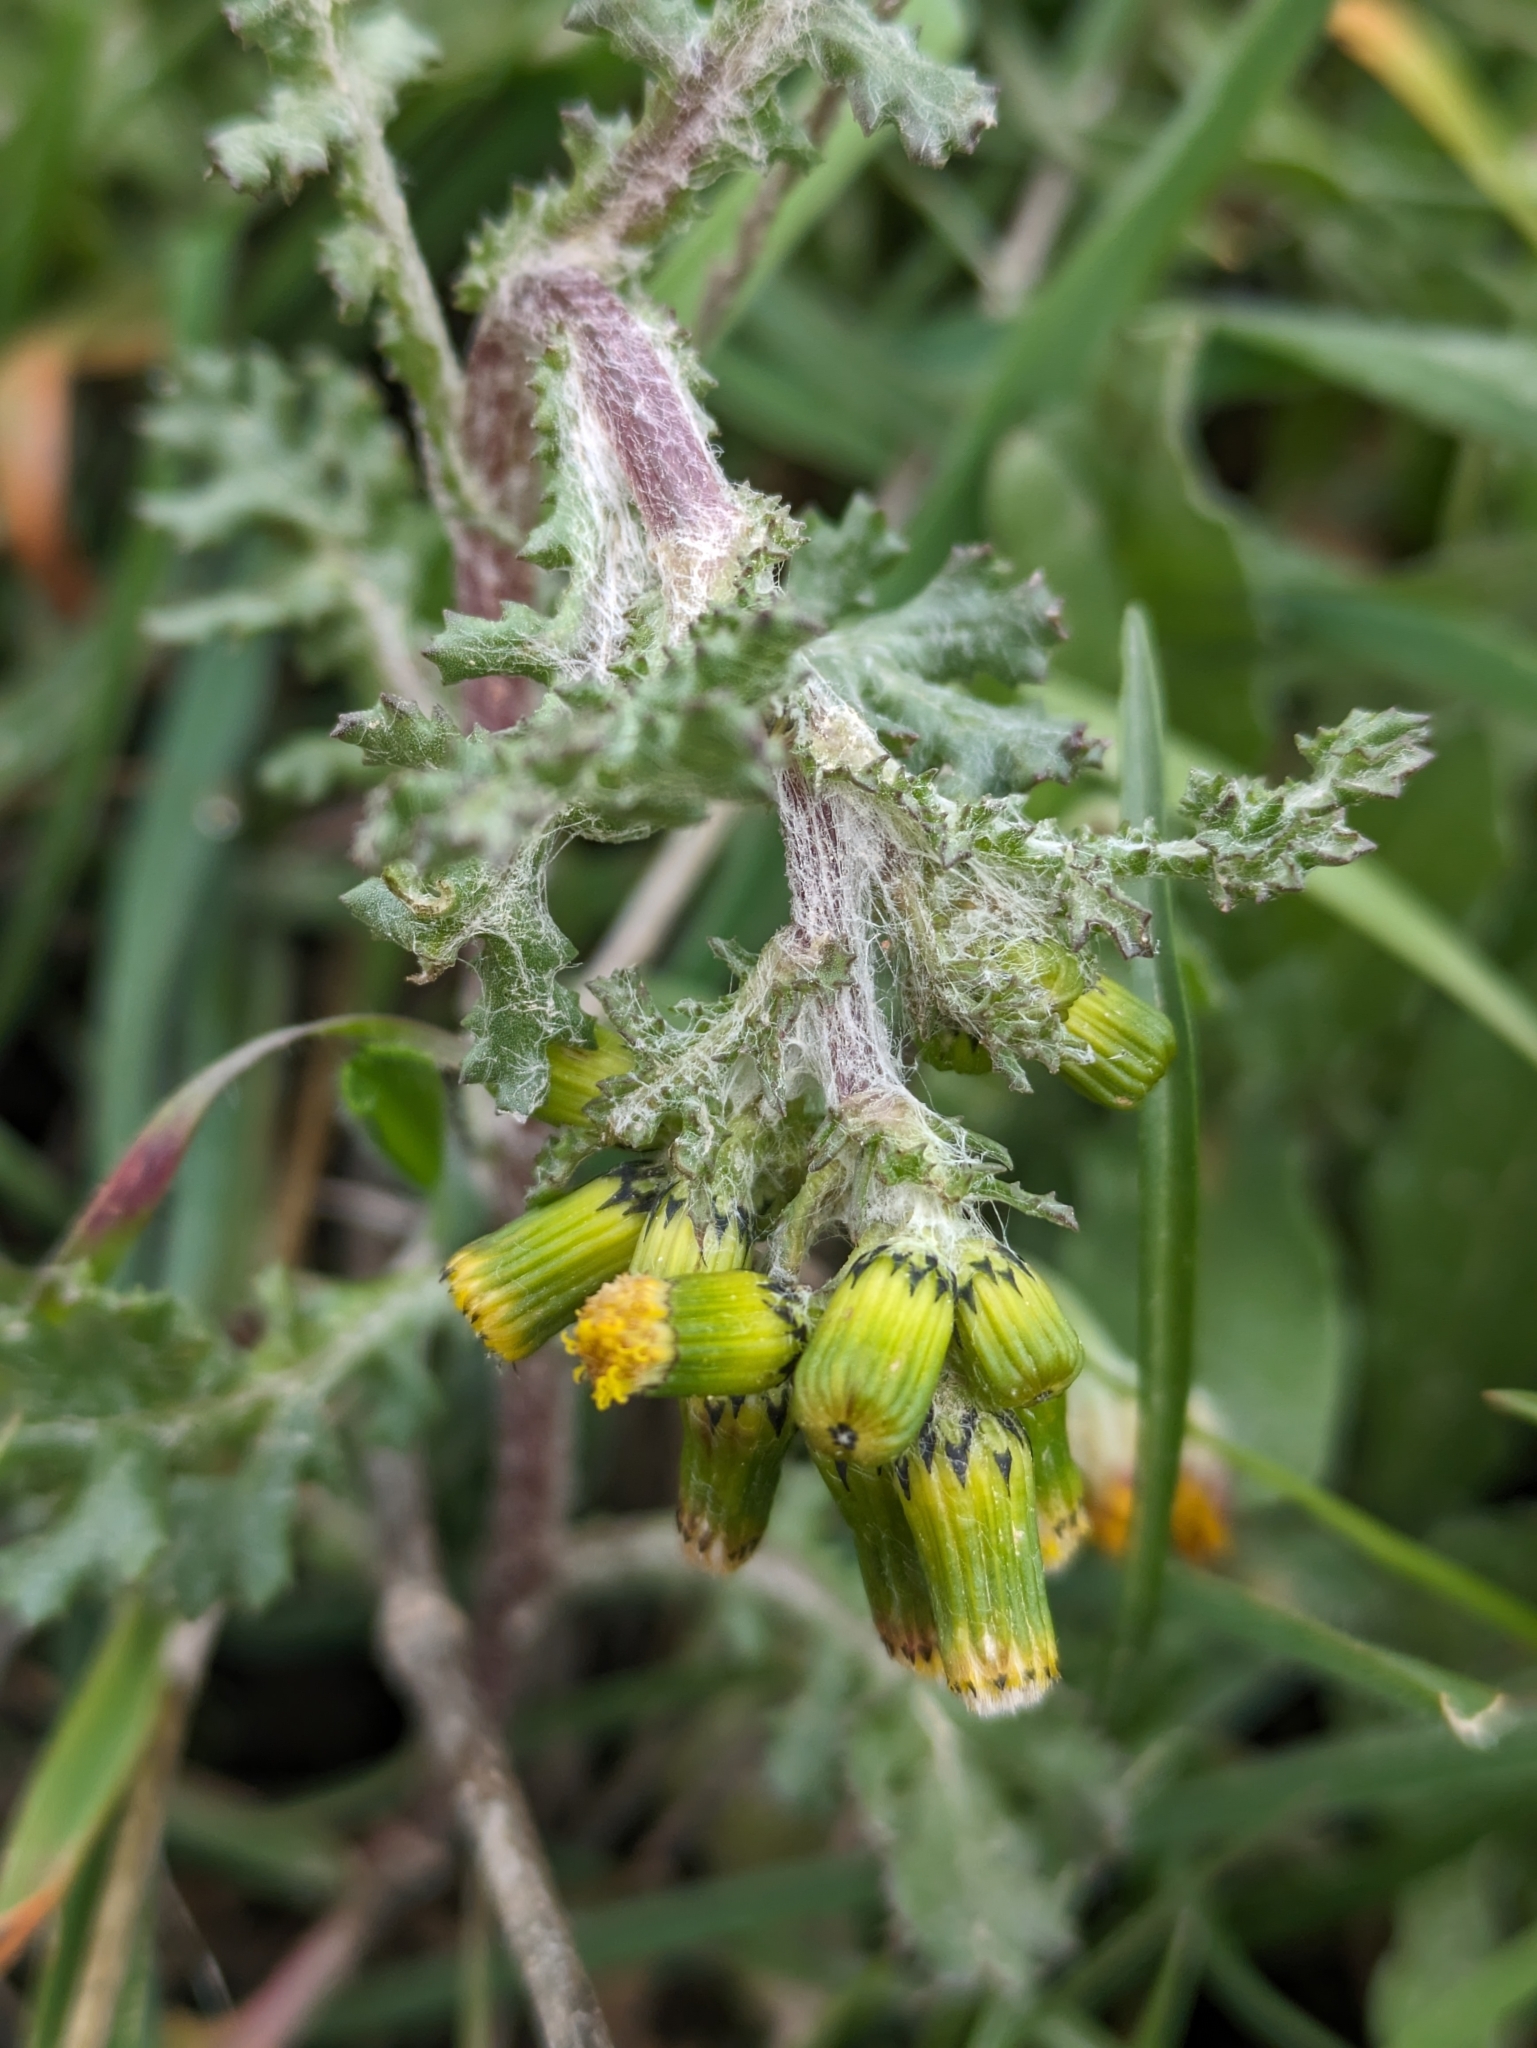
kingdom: Plantae
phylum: Tracheophyta
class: Magnoliopsida
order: Asterales
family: Asteraceae
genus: Senecio
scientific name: Senecio vulgaris
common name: Old-man-in-the-spring
